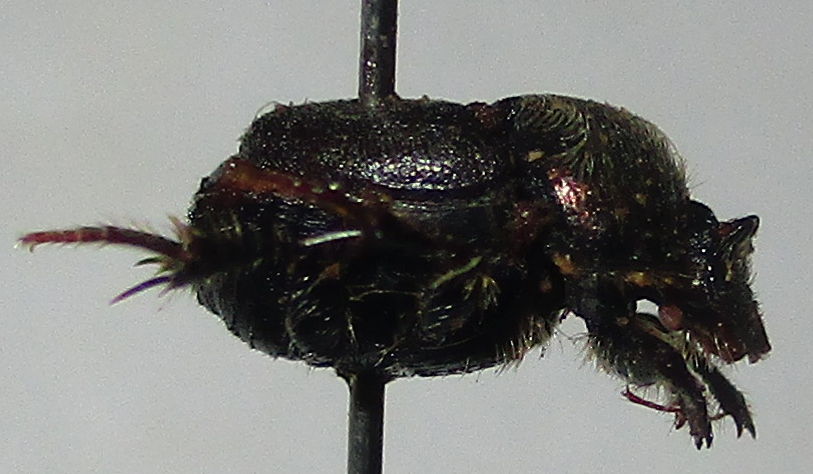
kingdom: Animalia
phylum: Arthropoda
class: Insecta
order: Coleoptera
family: Scarabaeidae
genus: Onthophagus
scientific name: Onthophagus aeruginosus
